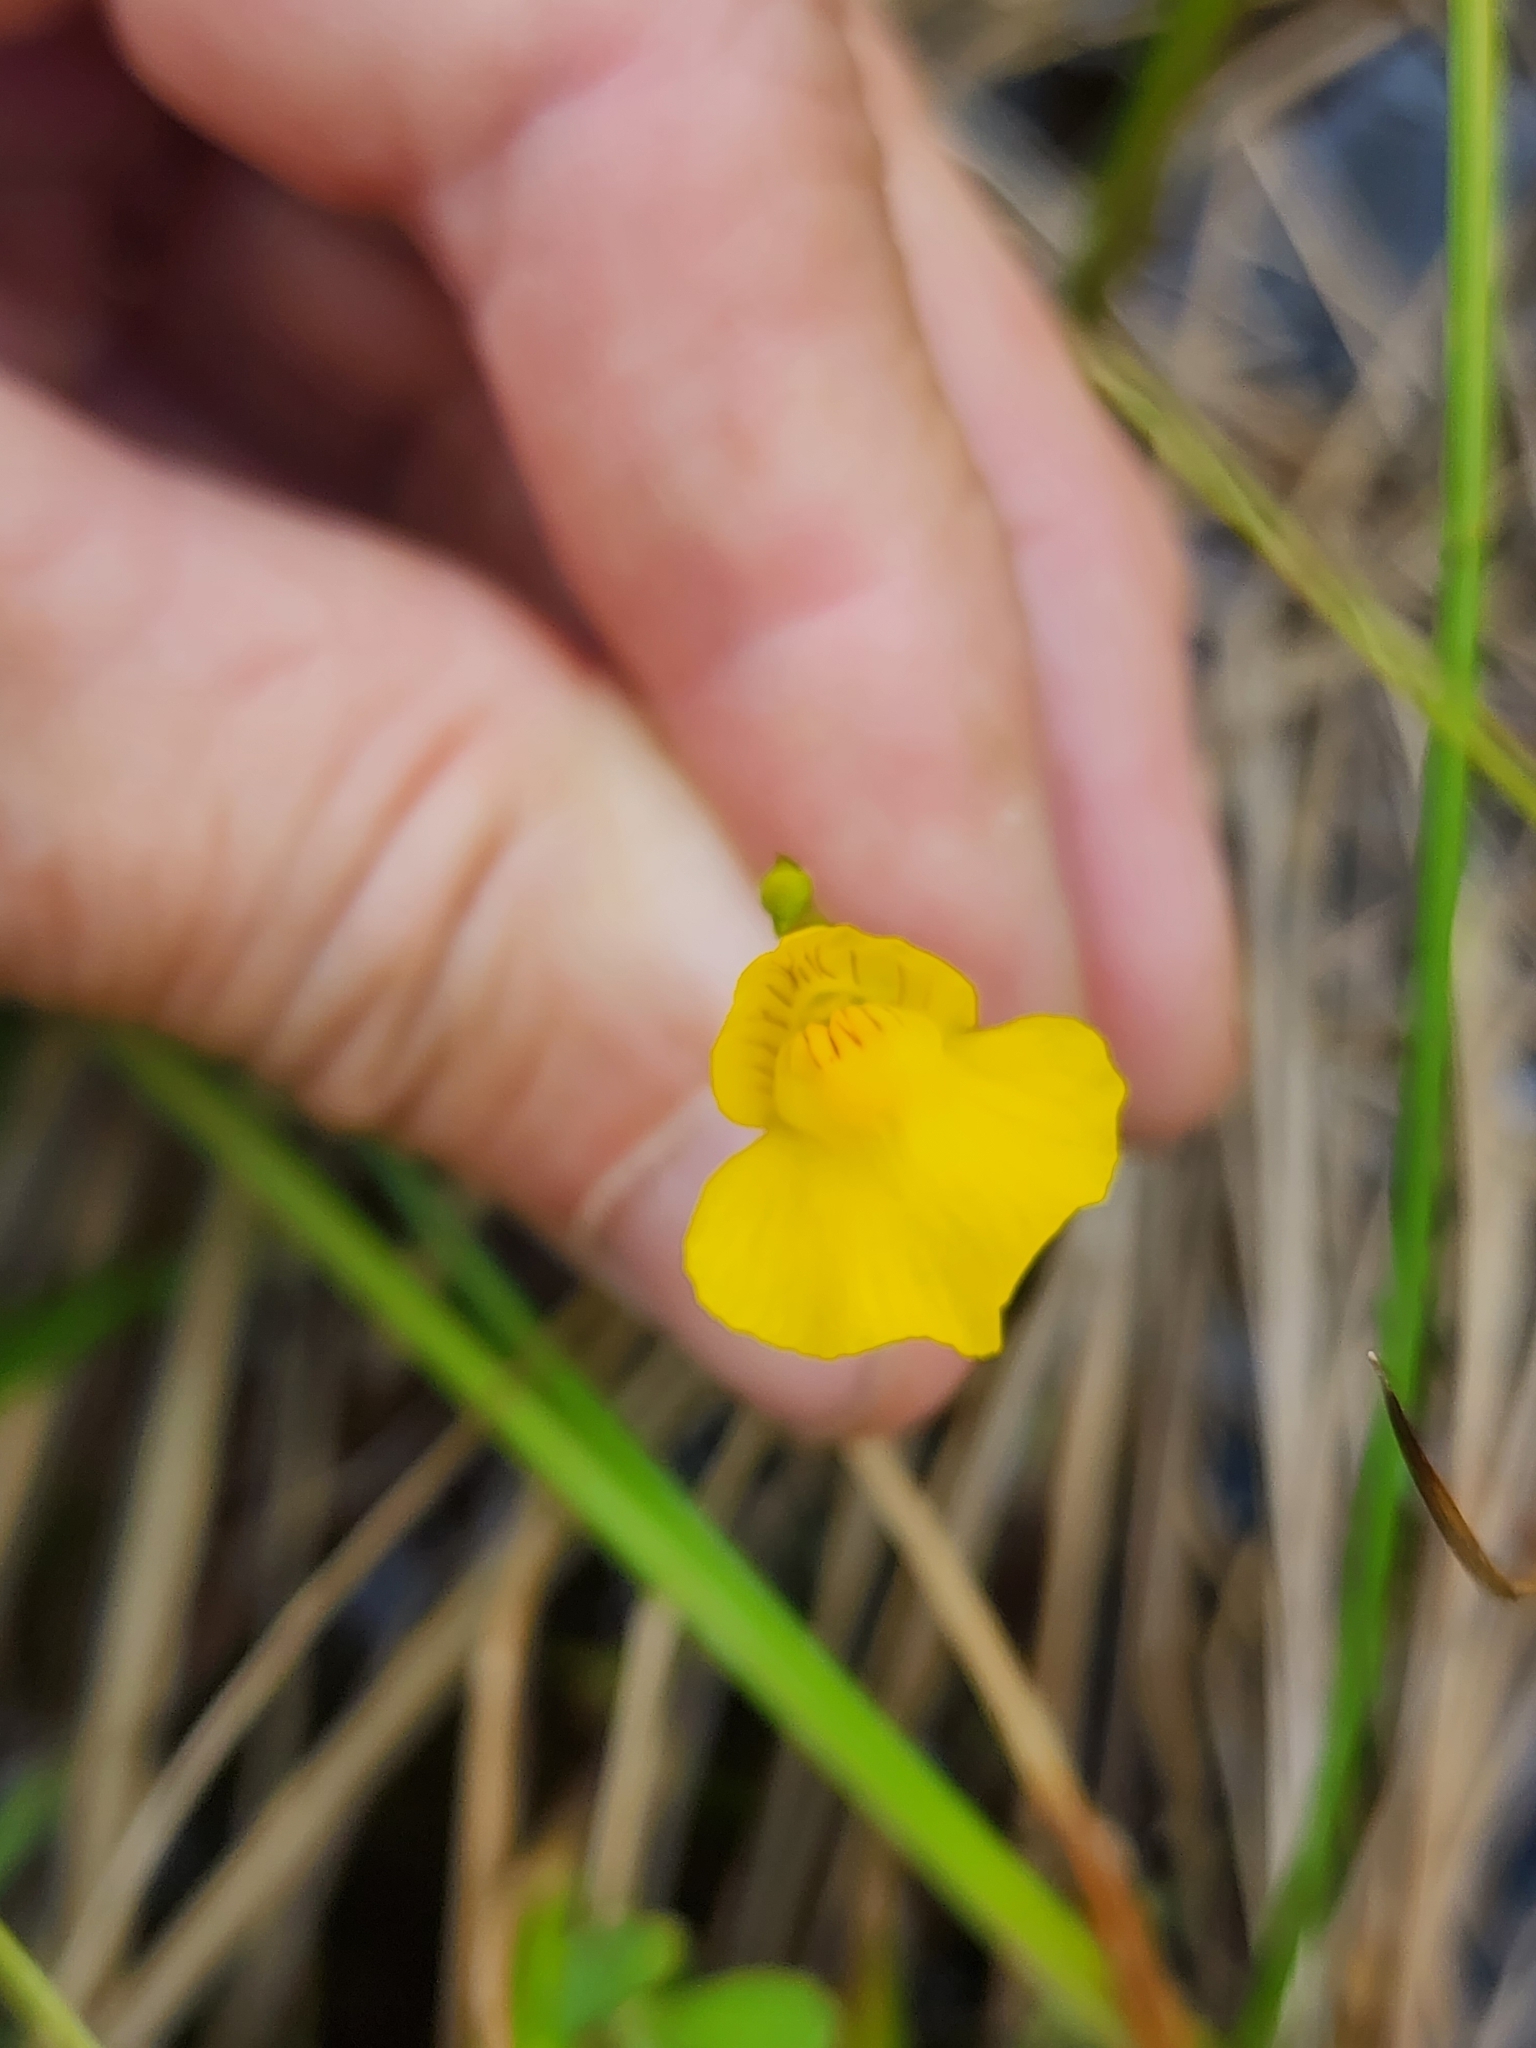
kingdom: Plantae
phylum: Tracheophyta
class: Magnoliopsida
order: Lamiales
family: Lentibulariaceae
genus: Utricularia
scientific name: Utricularia intermedia
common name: Intermediate bladderwort
